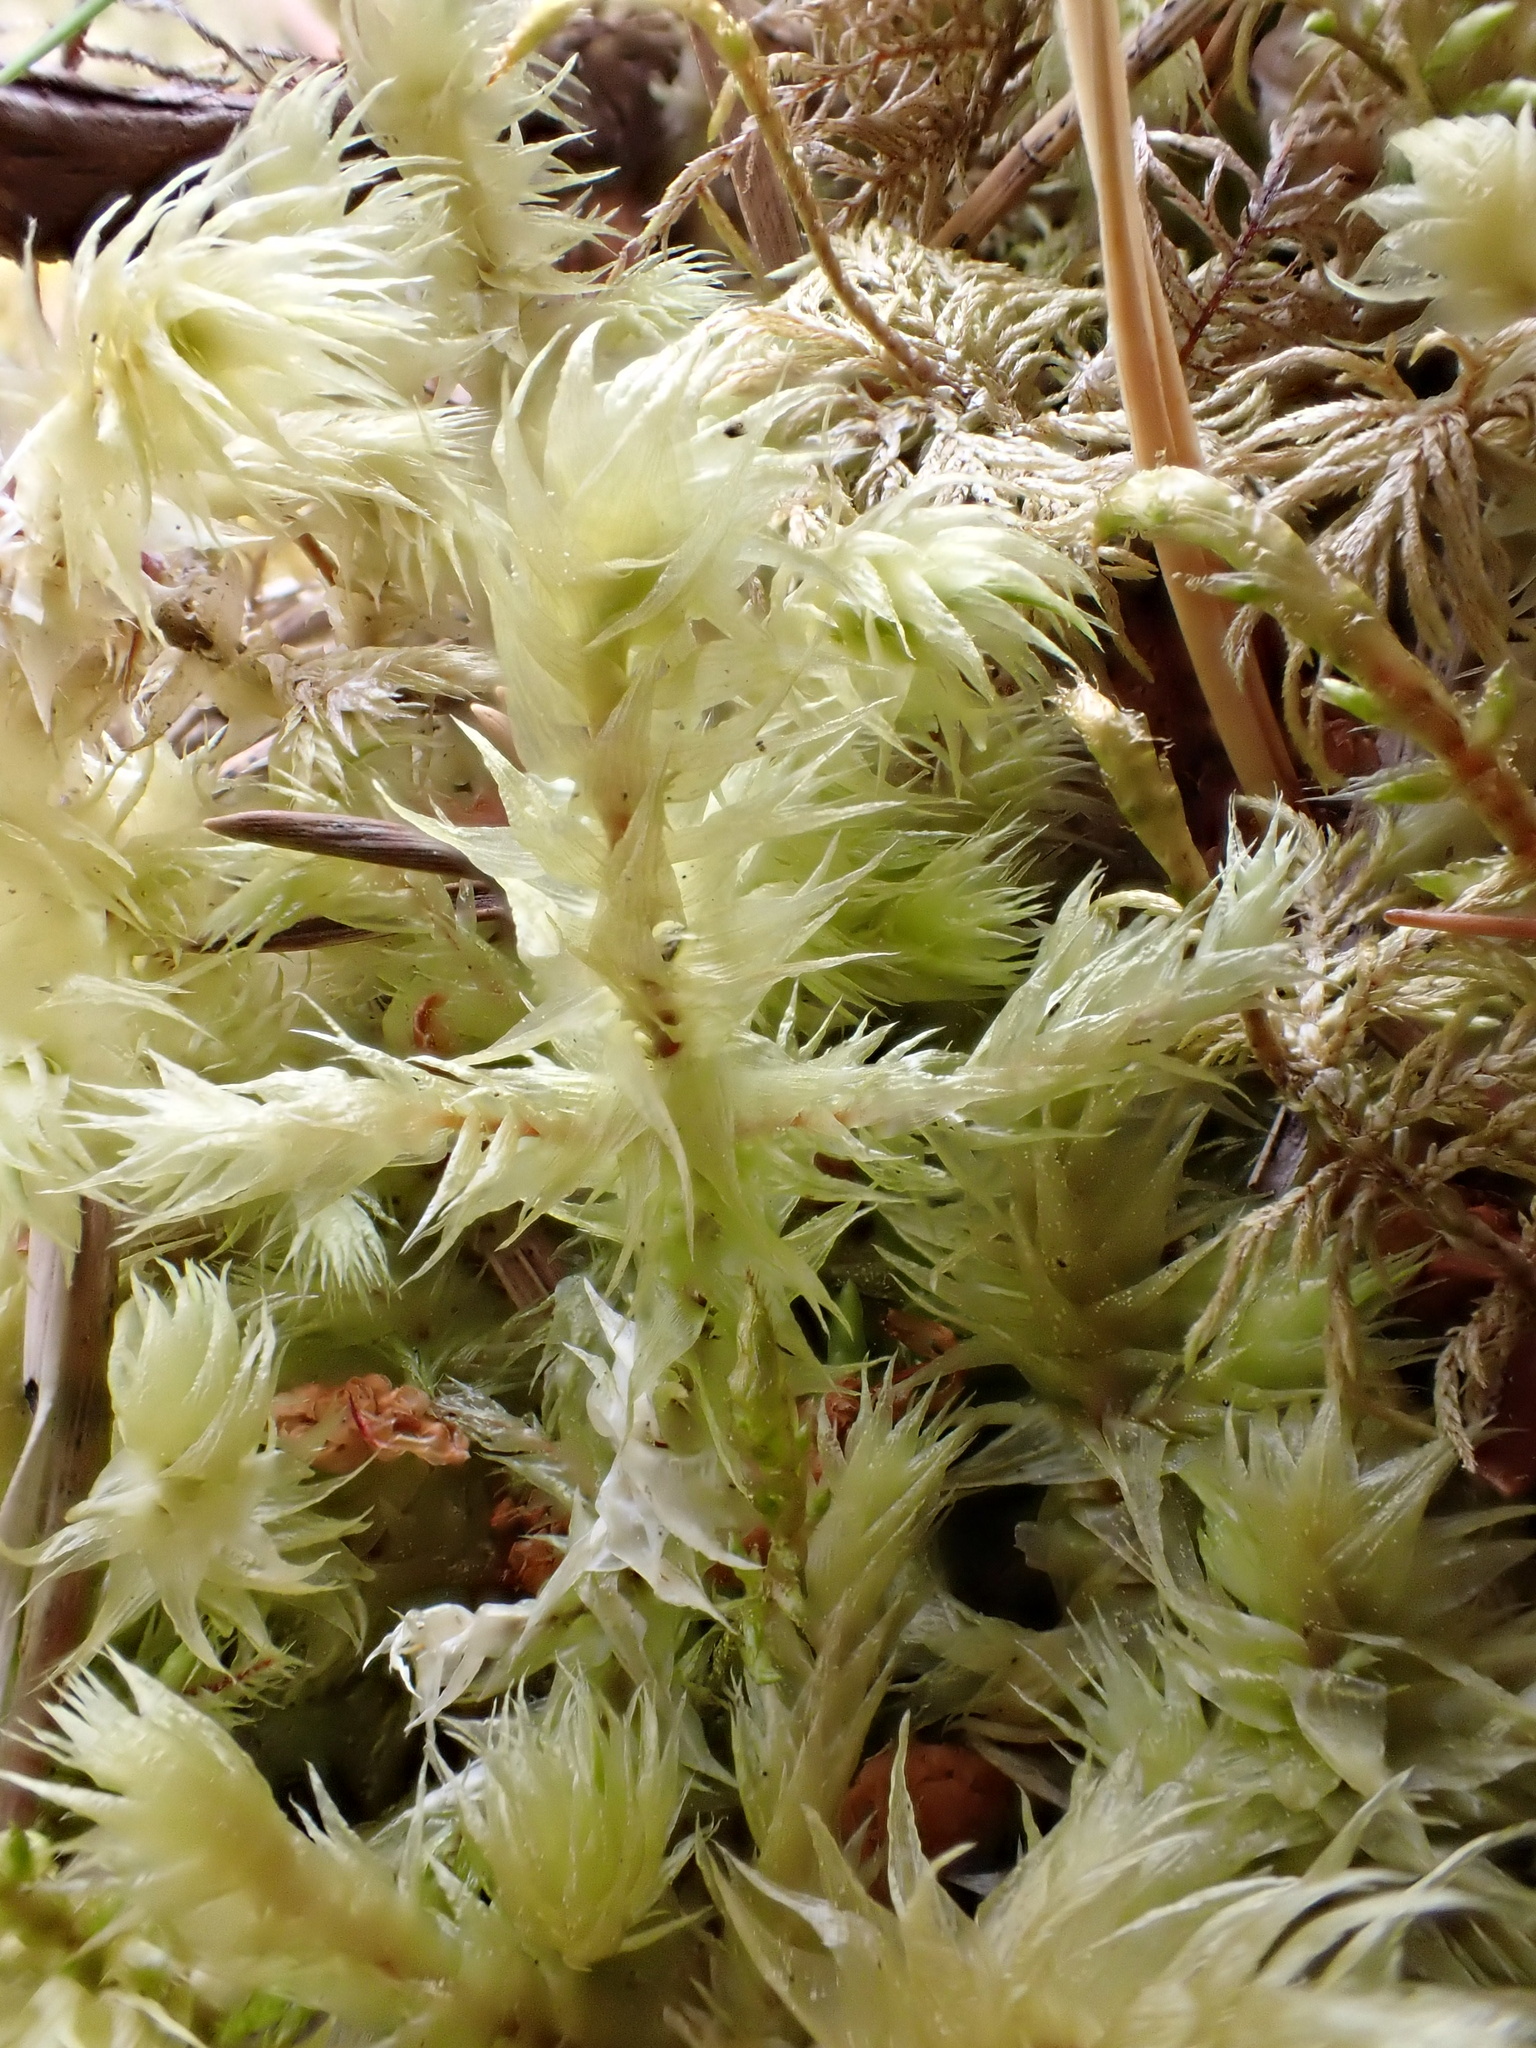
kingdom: Plantae
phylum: Bryophyta
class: Bryopsida
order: Hypnales
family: Hylocomiaceae
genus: Hylocomiadelphus
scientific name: Hylocomiadelphus triquetrus
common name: Rough goose neck moss
